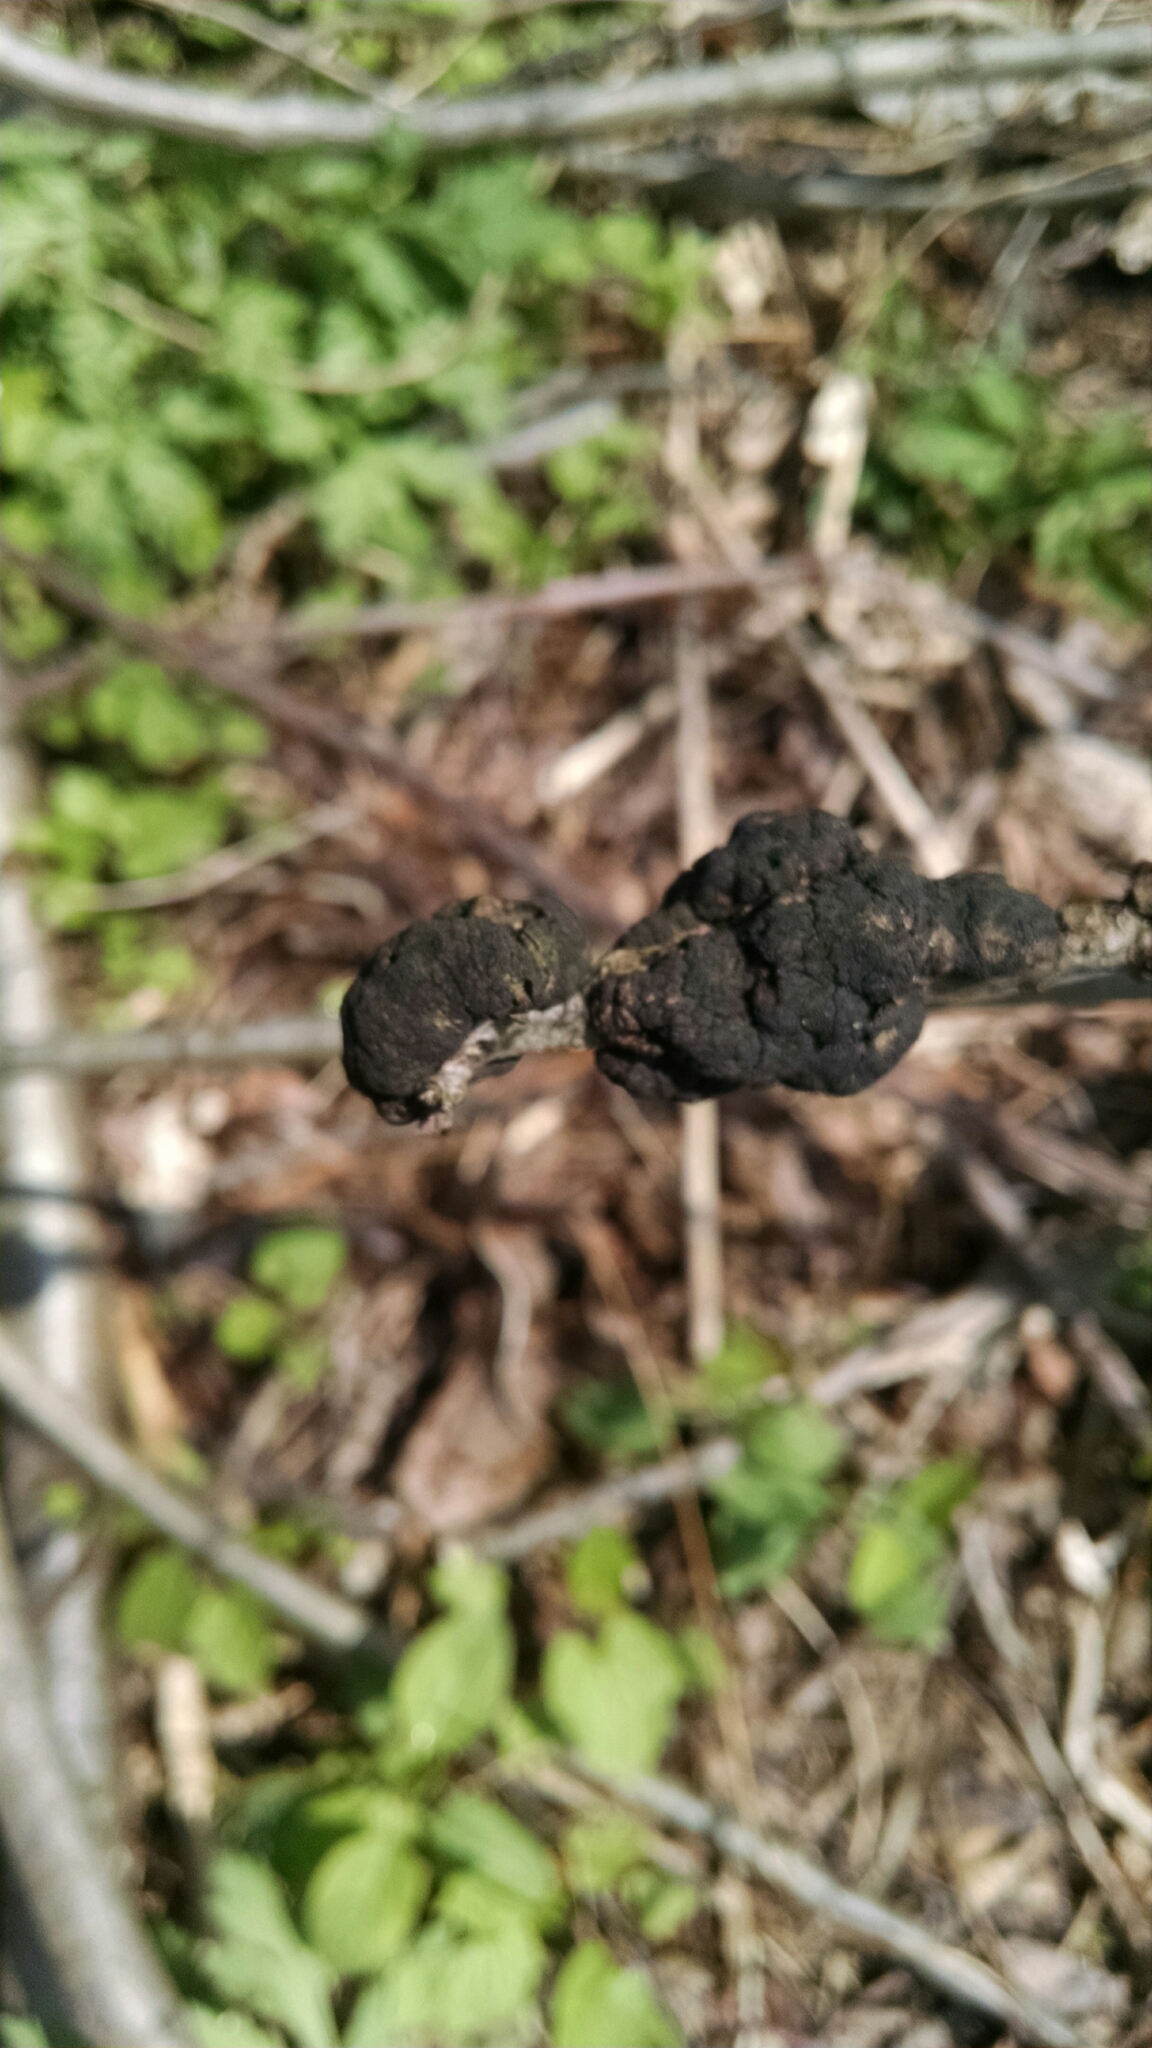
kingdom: Fungi
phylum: Ascomycota
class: Dothideomycetes
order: Venturiales
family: Venturiaceae
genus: Apiosporina
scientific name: Apiosporina morbosa
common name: Black knot
